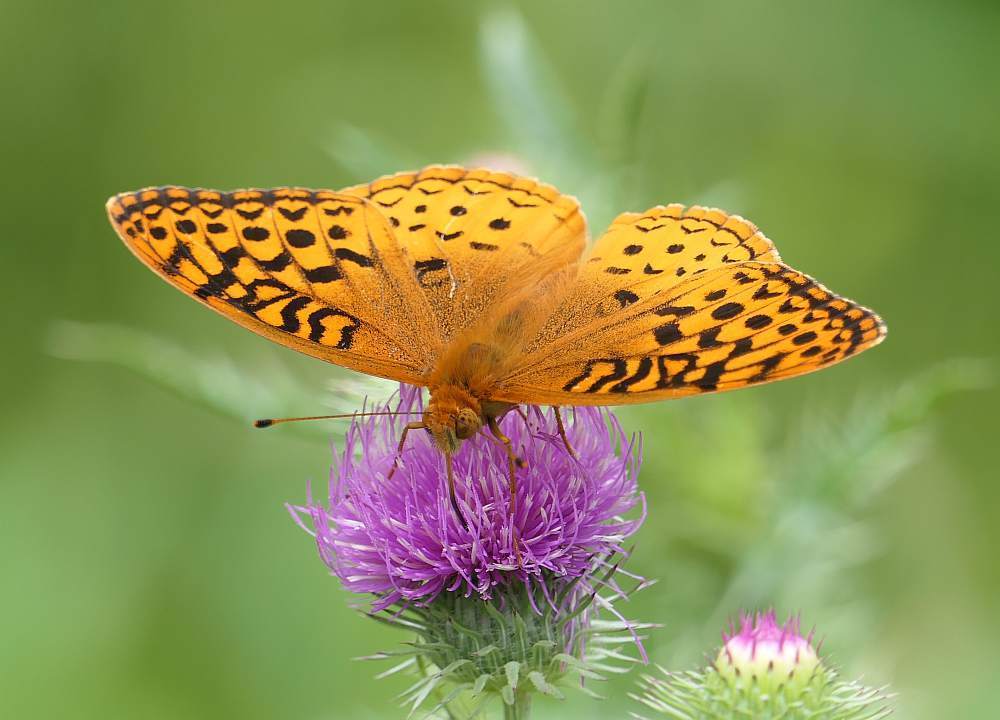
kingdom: Animalia
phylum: Arthropoda
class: Insecta
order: Lepidoptera
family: Nymphalidae
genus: Speyeria
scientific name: Speyeria cybele
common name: Great spangled fritillary
